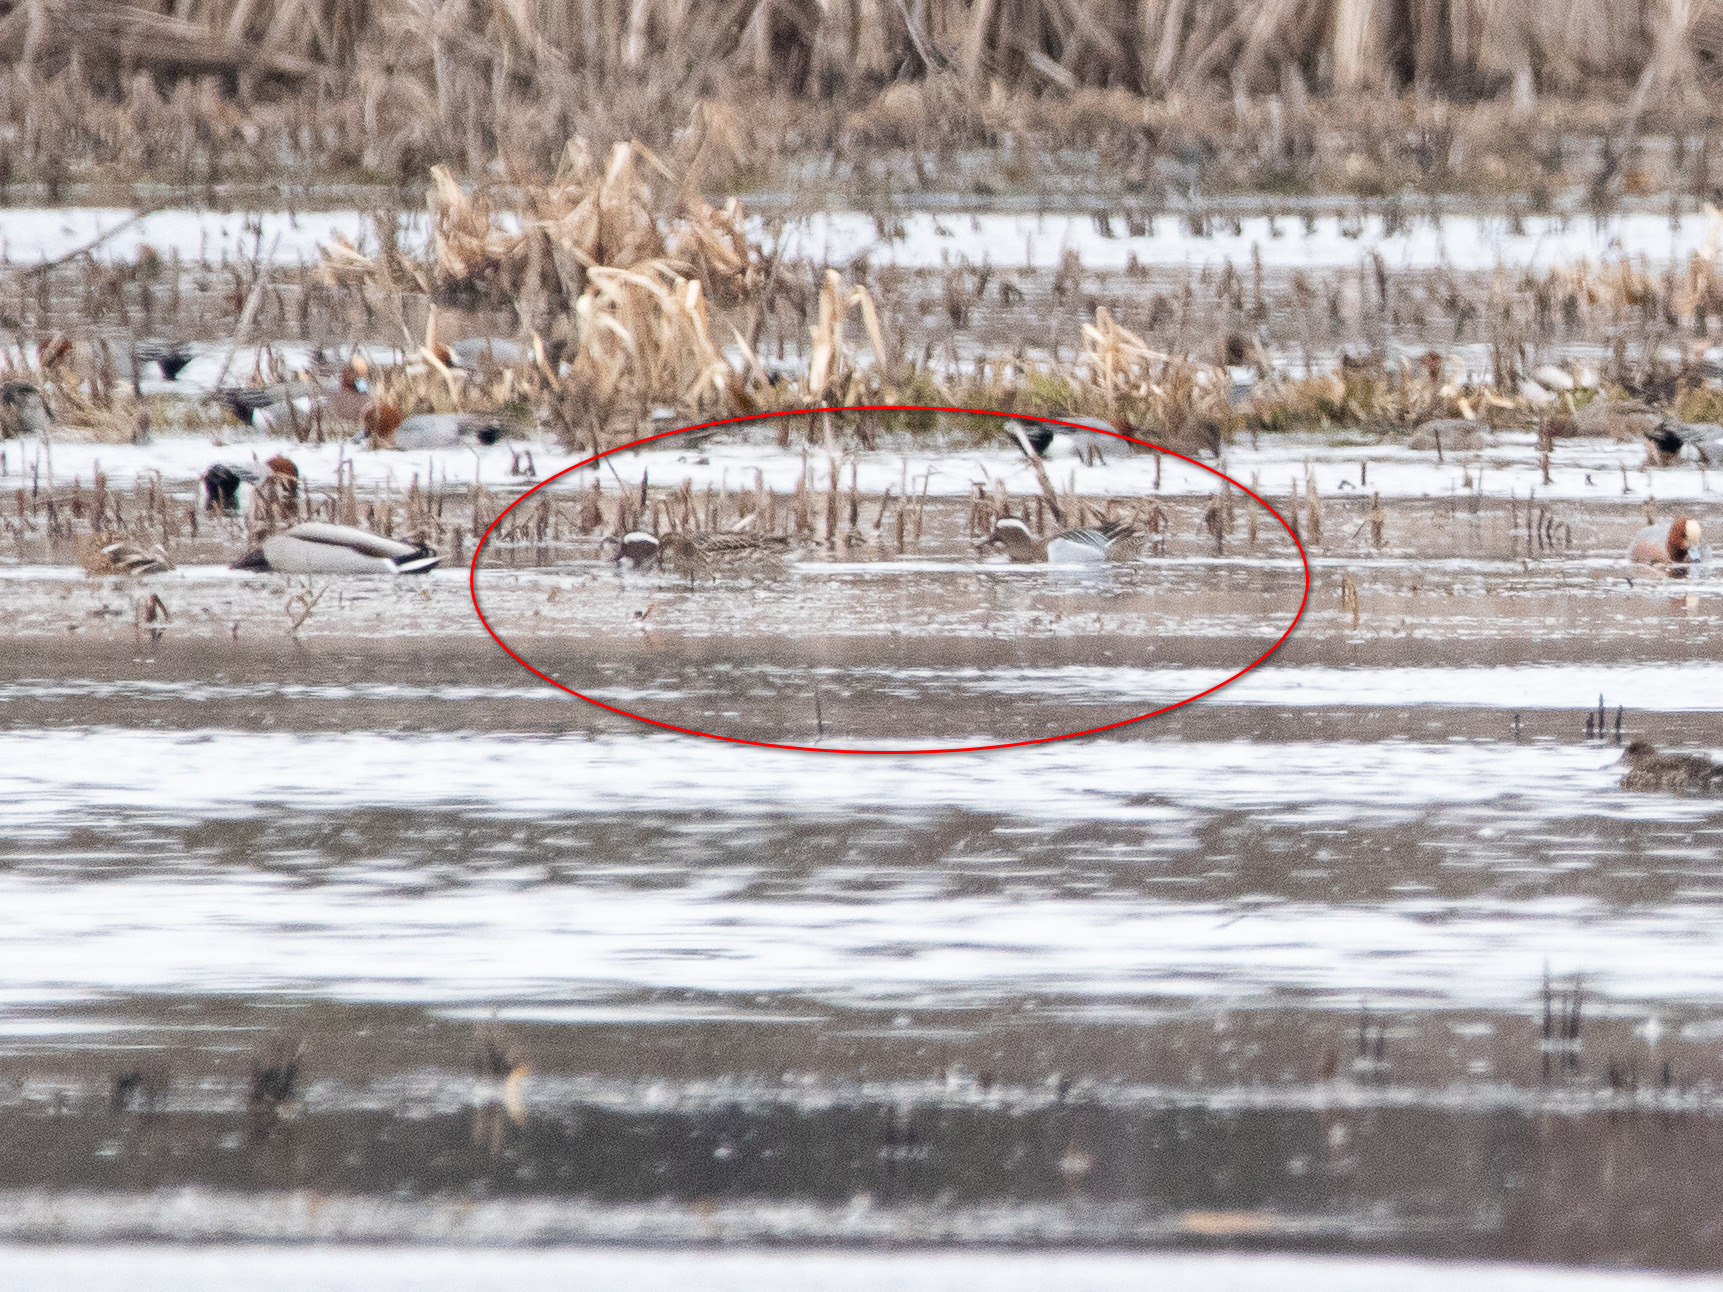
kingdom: Animalia
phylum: Chordata
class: Aves
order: Anseriformes
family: Anatidae
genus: Spatula
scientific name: Spatula querquedula
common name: Garganey
